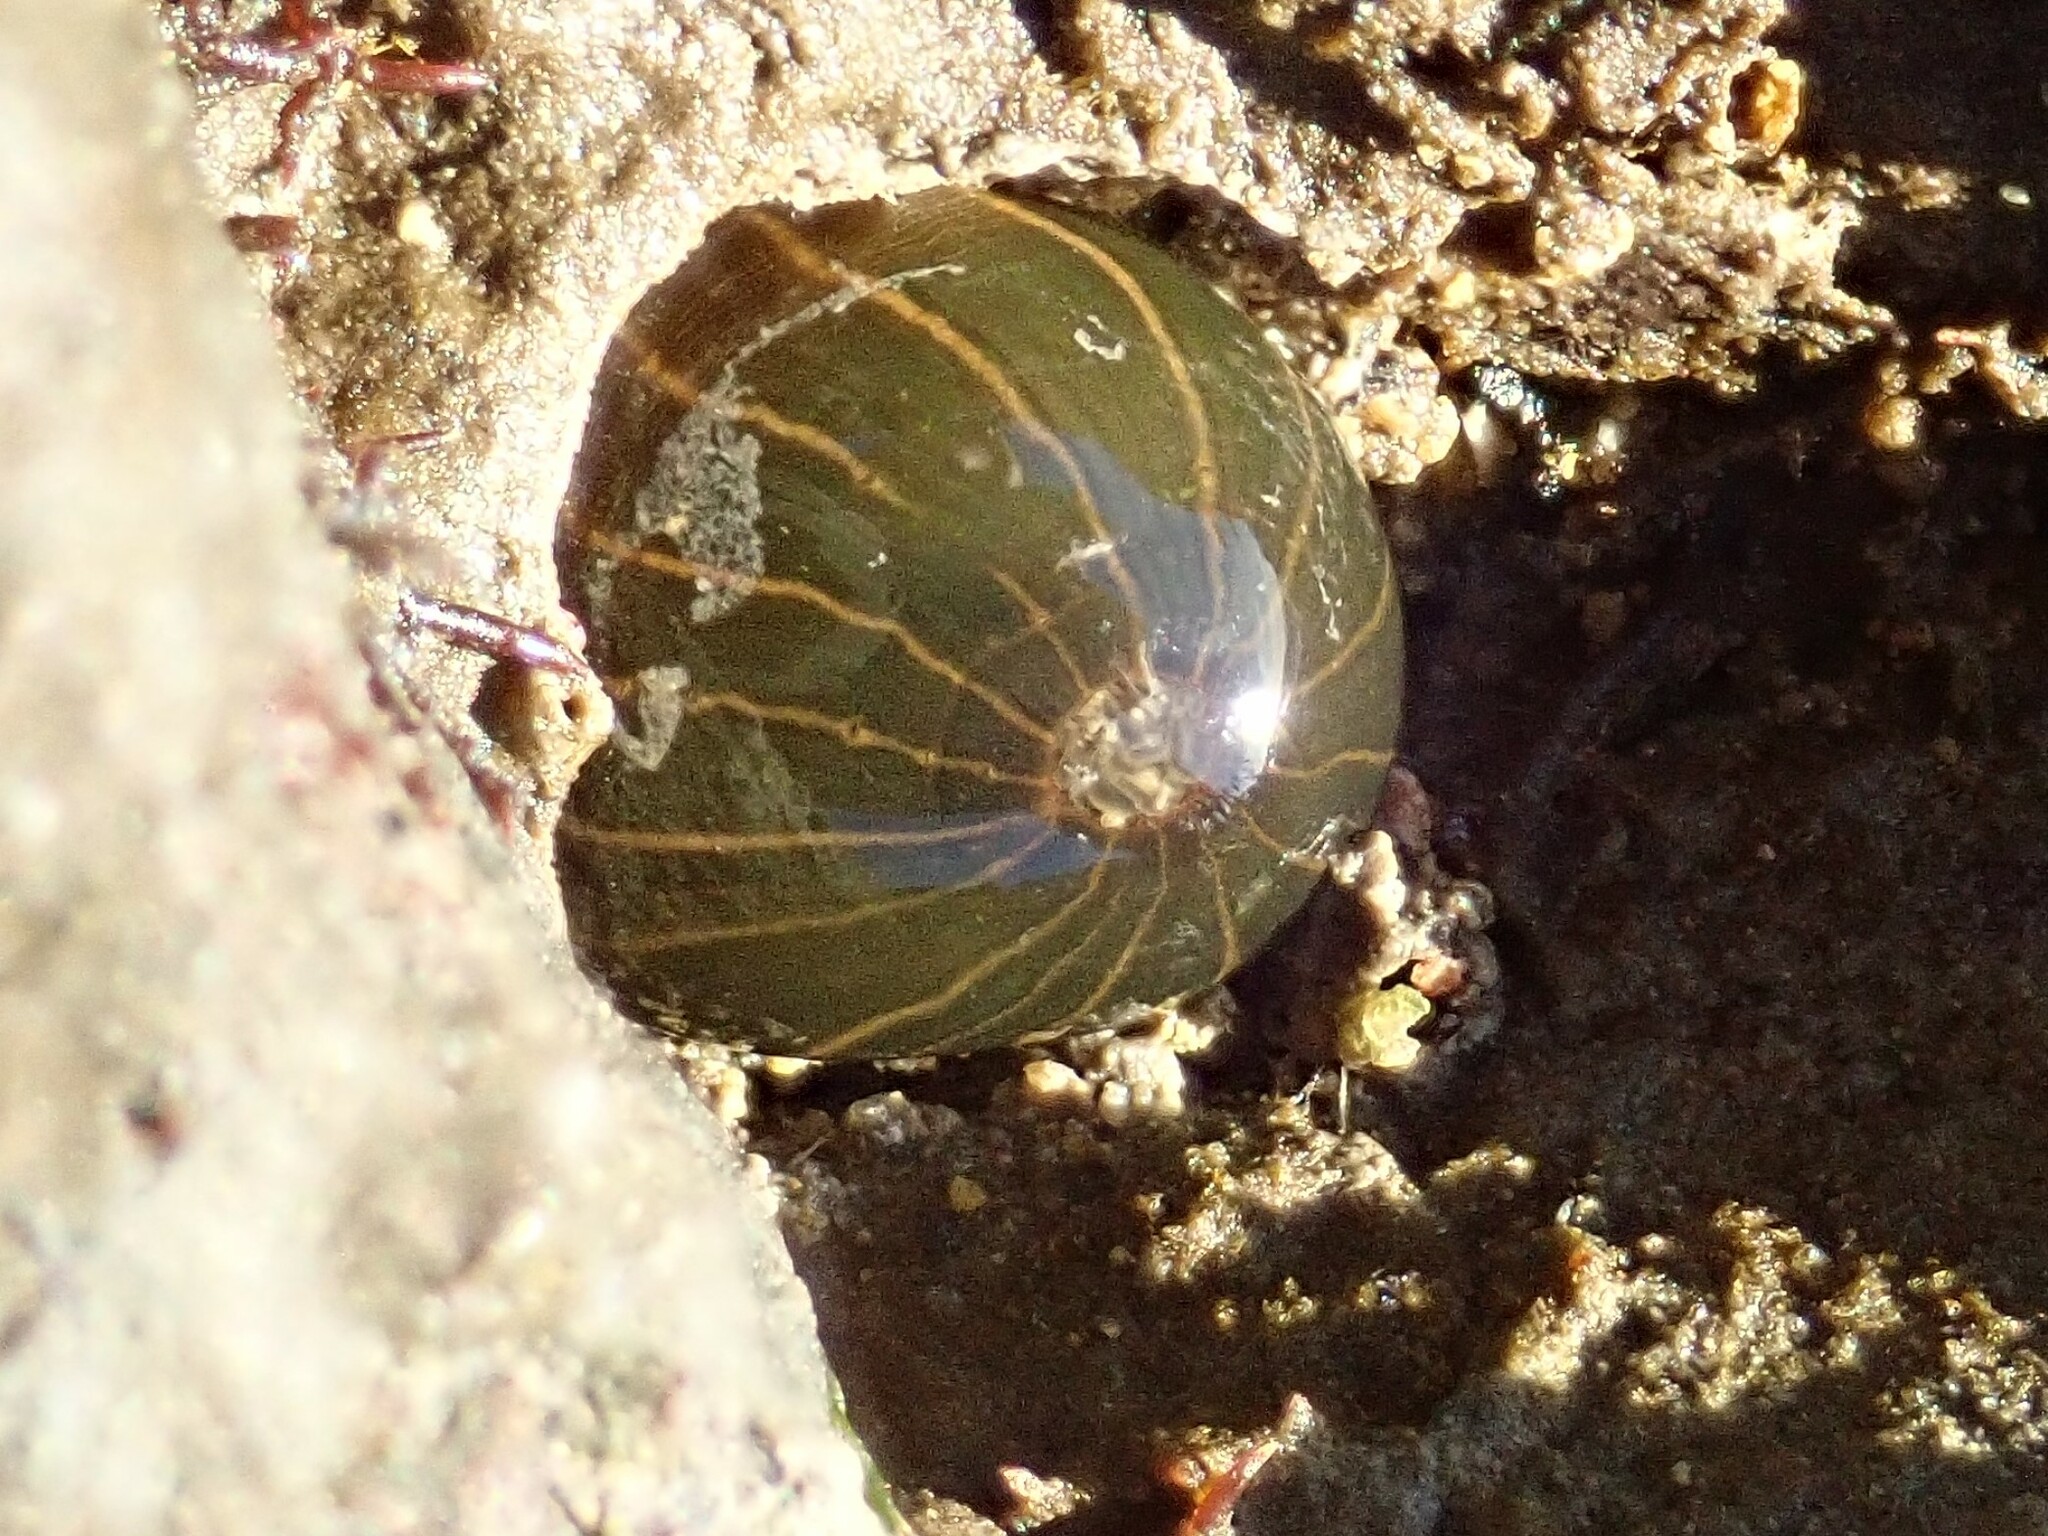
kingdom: Animalia
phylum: Cnidaria
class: Anthozoa
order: Actiniaria
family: Diadumenidae
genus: Diadumene
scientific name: Diadumene lineata
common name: Orange-striped anemone
